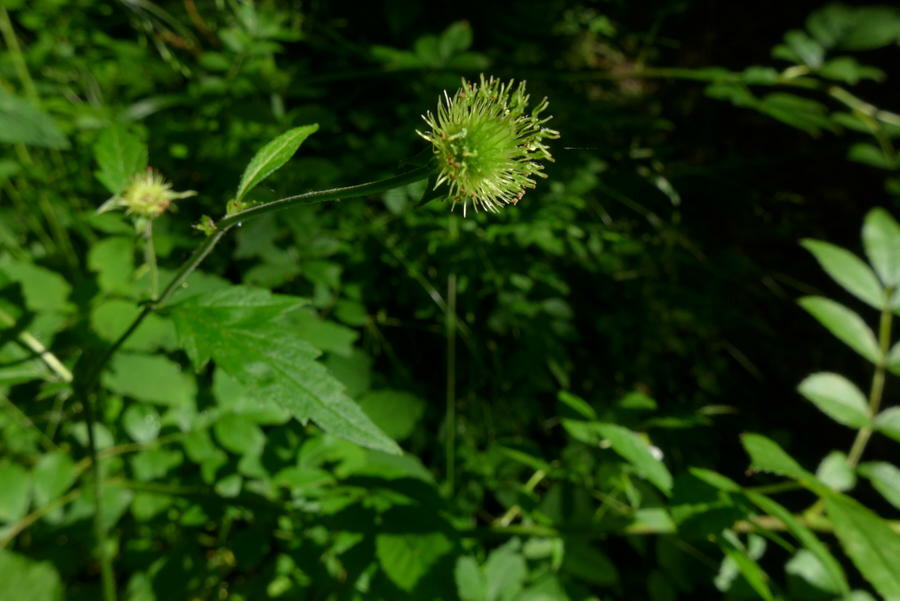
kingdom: Plantae
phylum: Tracheophyta
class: Magnoliopsida
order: Rosales
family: Rosaceae
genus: Geum
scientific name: Geum canadense
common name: White avens
